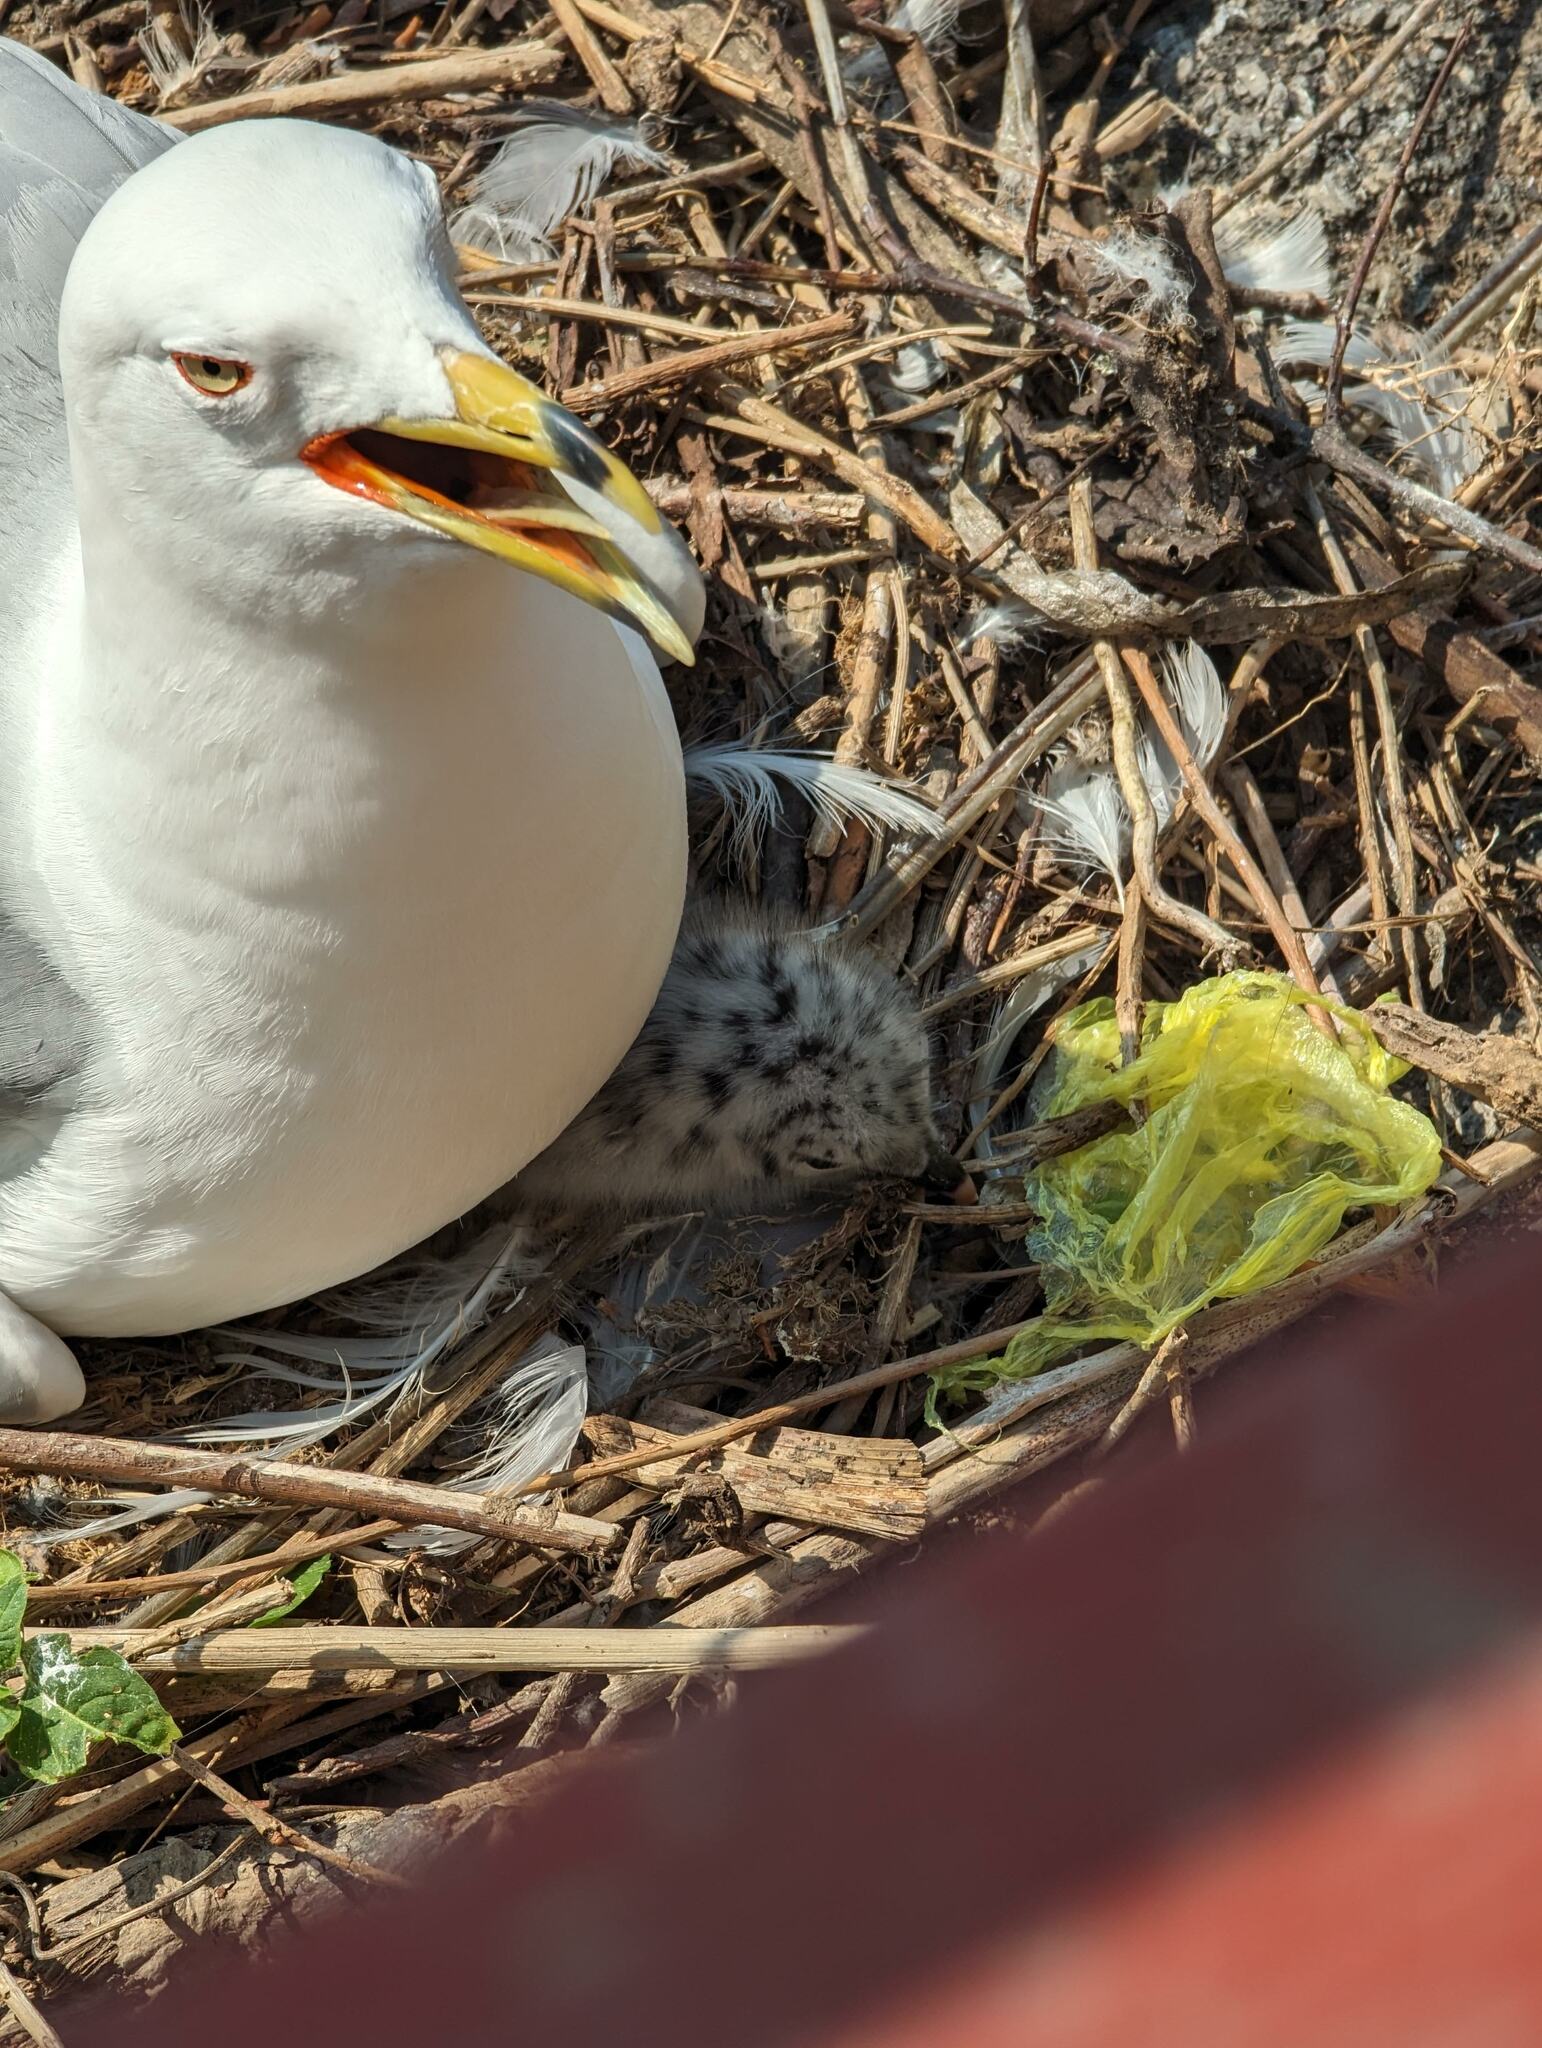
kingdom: Animalia
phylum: Chordata
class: Aves
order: Charadriiformes
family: Laridae
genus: Larus
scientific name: Larus delawarensis
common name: Ring-billed gull
